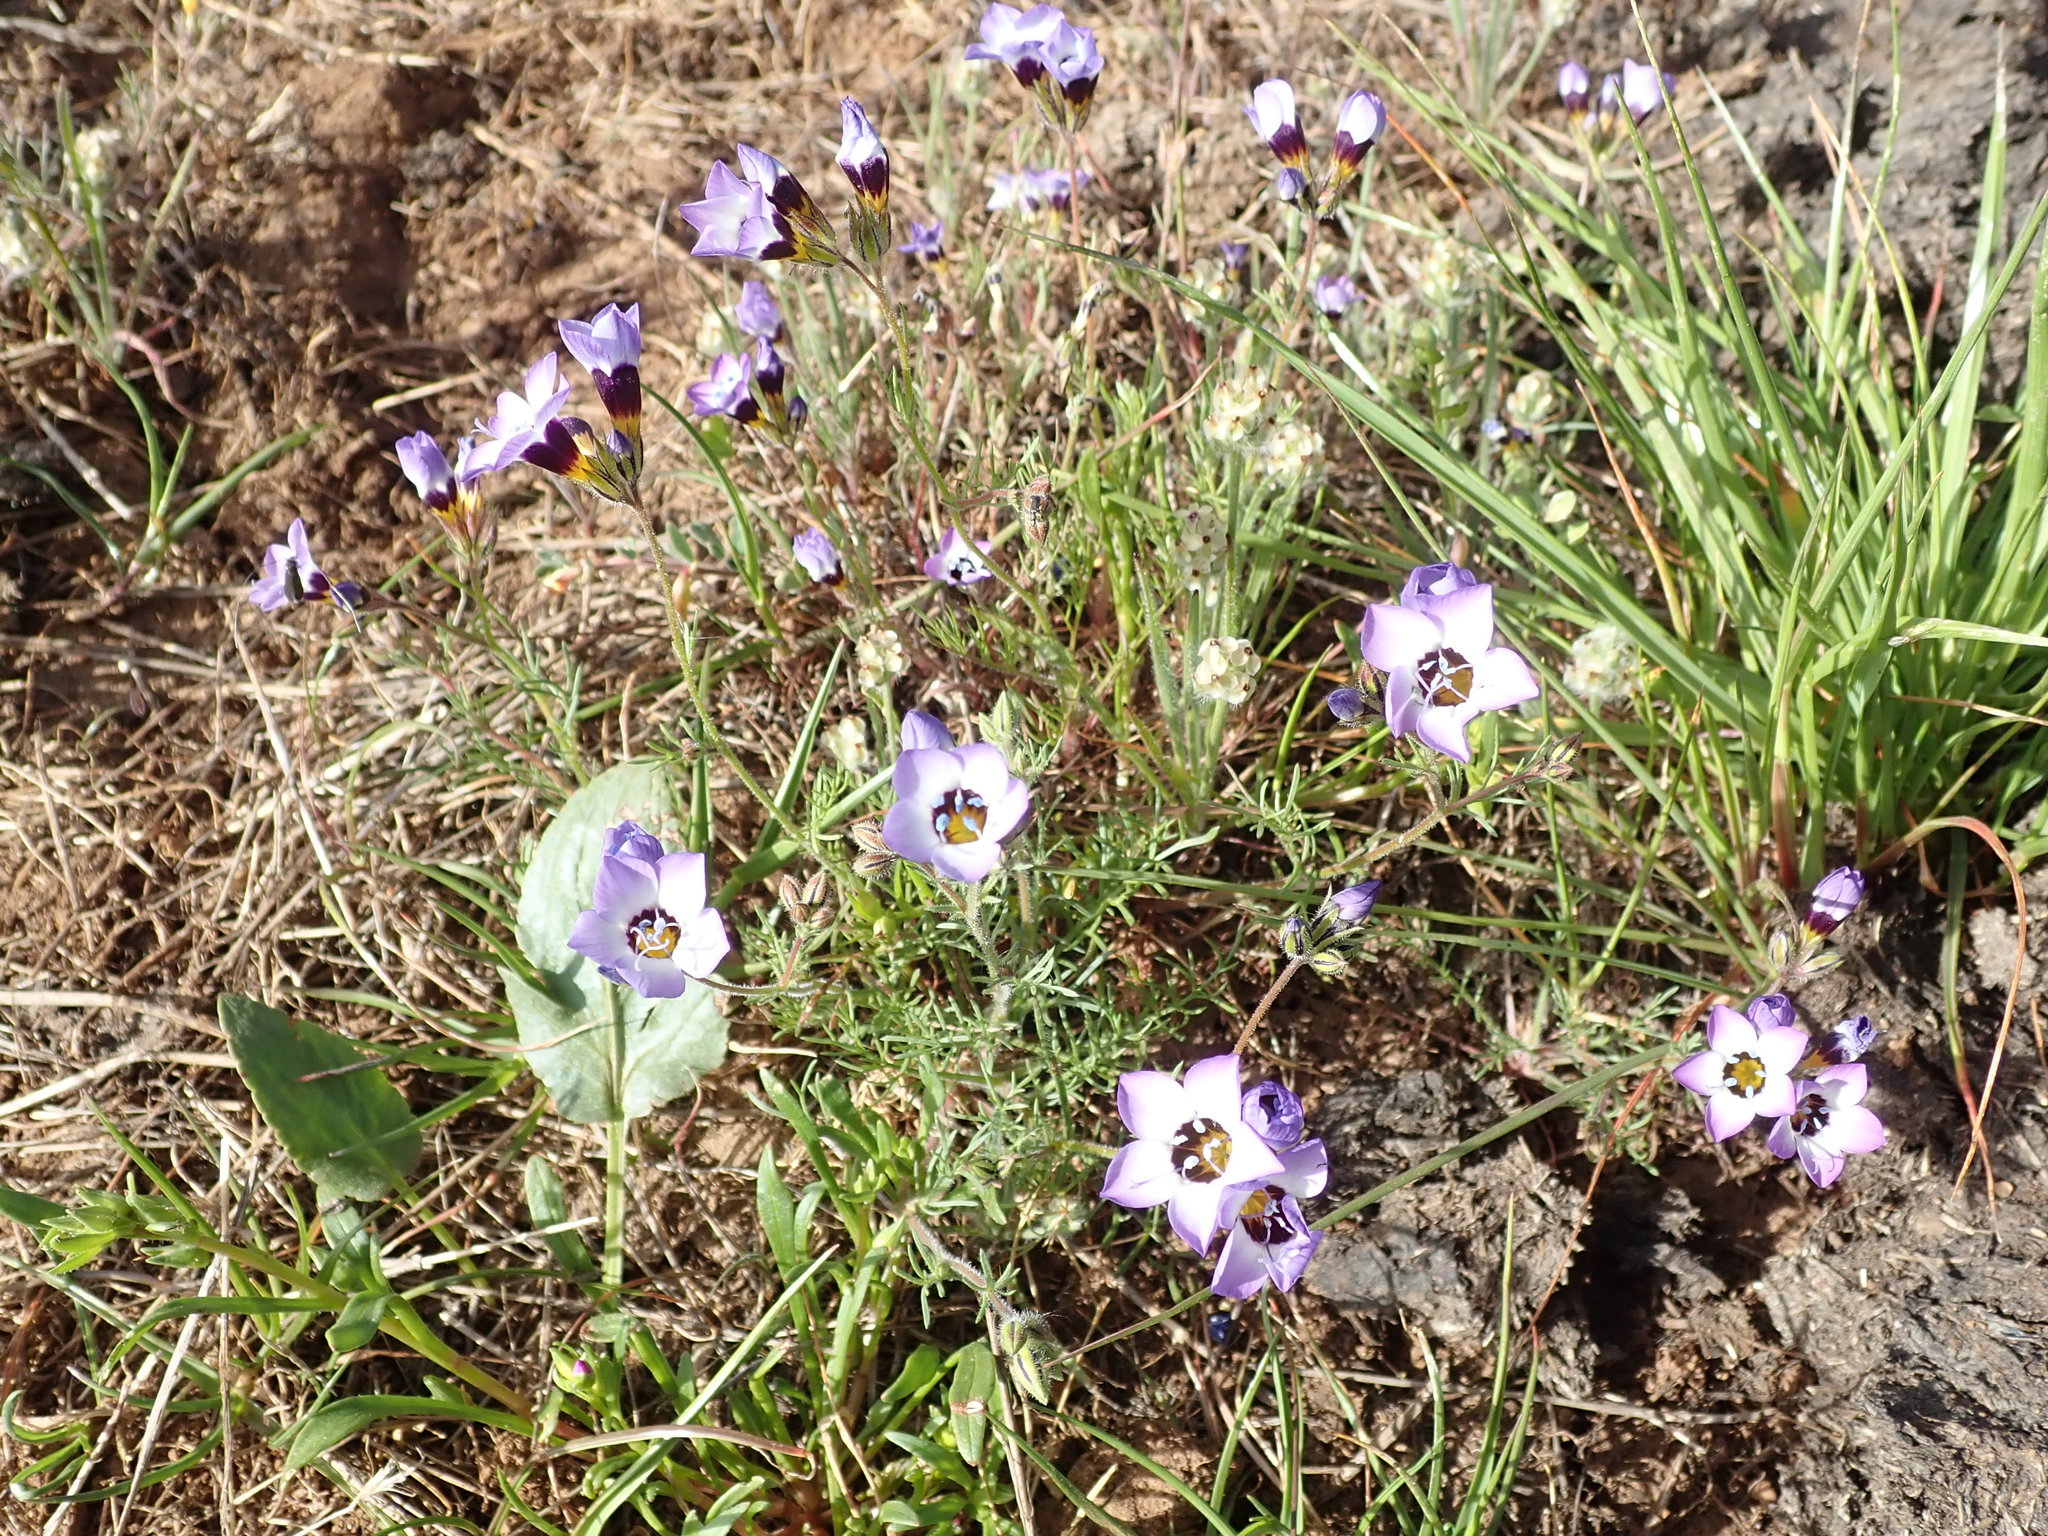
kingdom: Plantae
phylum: Tracheophyta
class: Magnoliopsida
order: Ericales
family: Polemoniaceae
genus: Gilia
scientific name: Gilia tricolor
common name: Bird's-eyes
